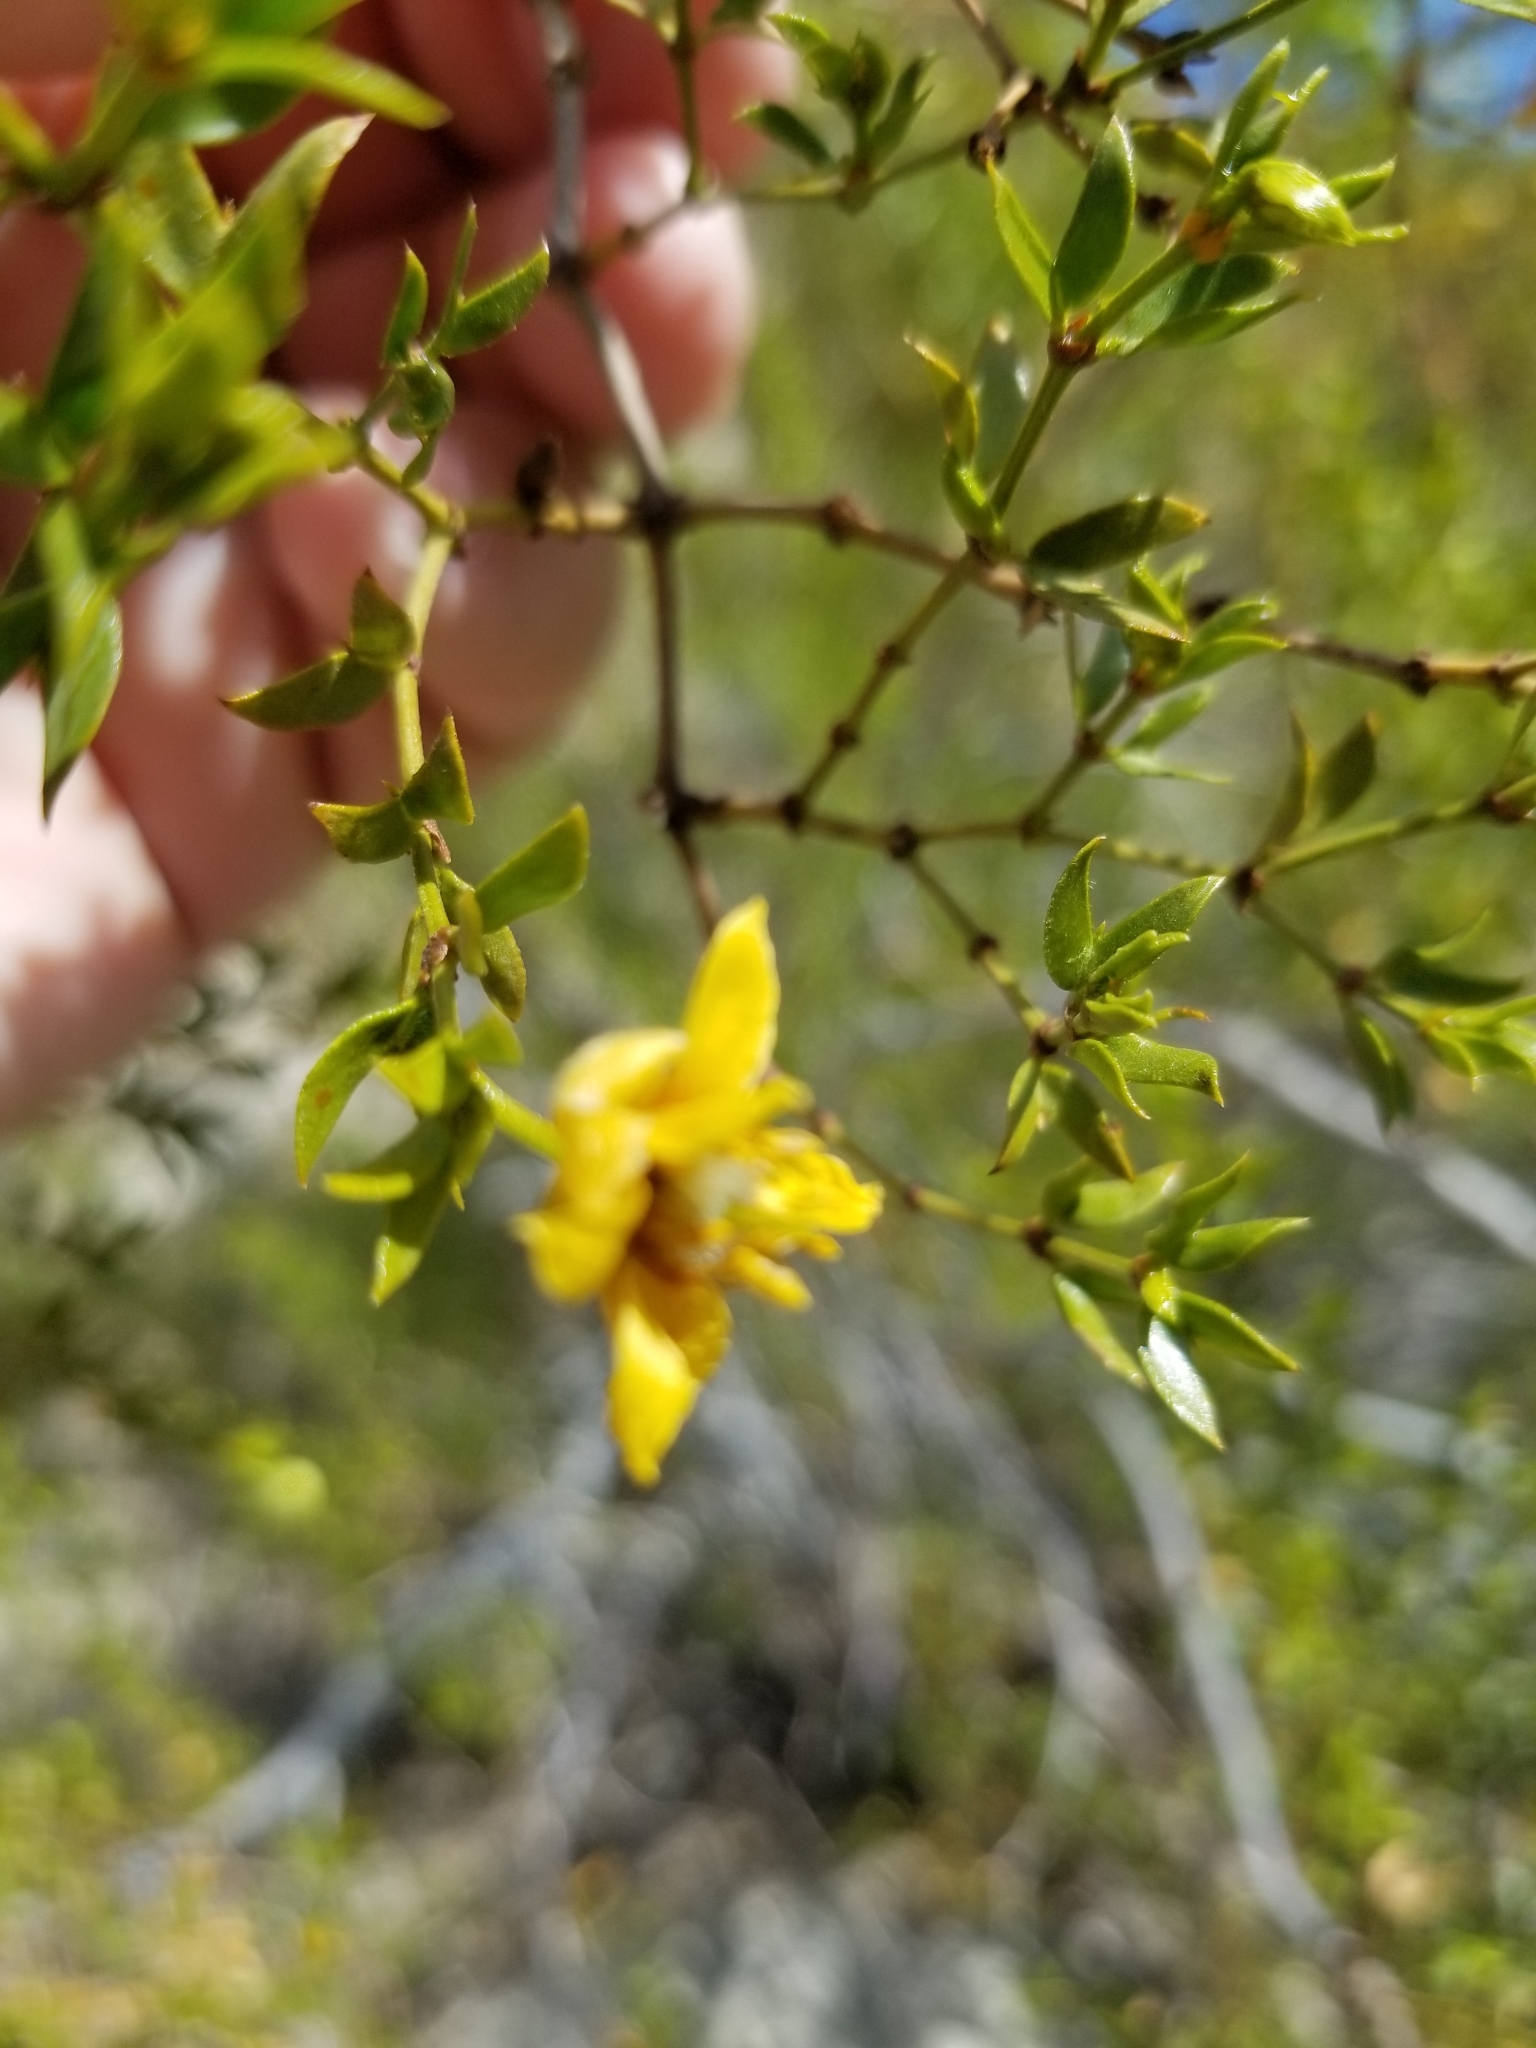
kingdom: Plantae
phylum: Tracheophyta
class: Magnoliopsida
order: Zygophyllales
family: Zygophyllaceae
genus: Larrea
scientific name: Larrea tridentata
